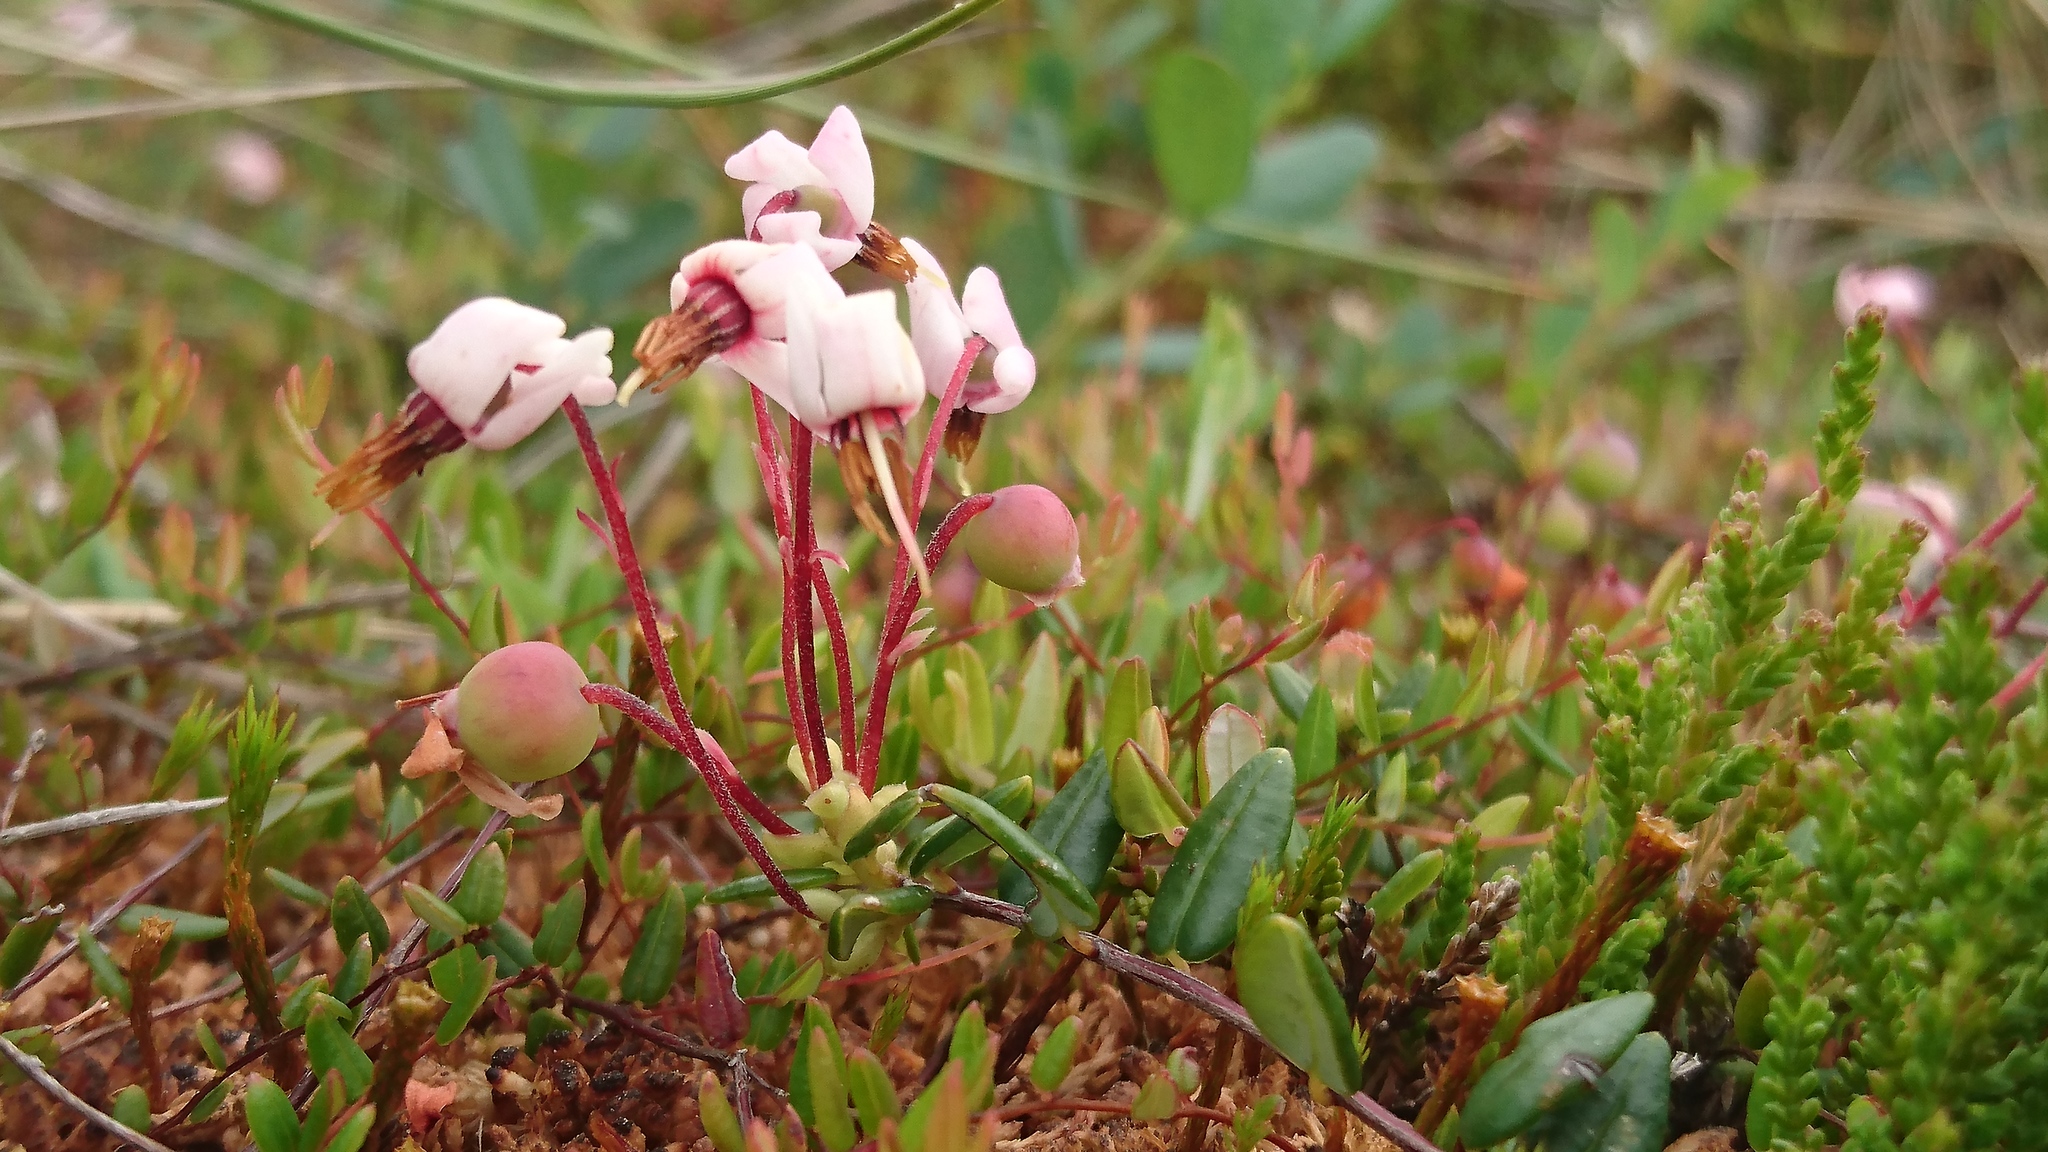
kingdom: Plantae
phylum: Tracheophyta
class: Magnoliopsida
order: Ericales
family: Ericaceae
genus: Vaccinium
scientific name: Vaccinium oxycoccos
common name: Cranberry
